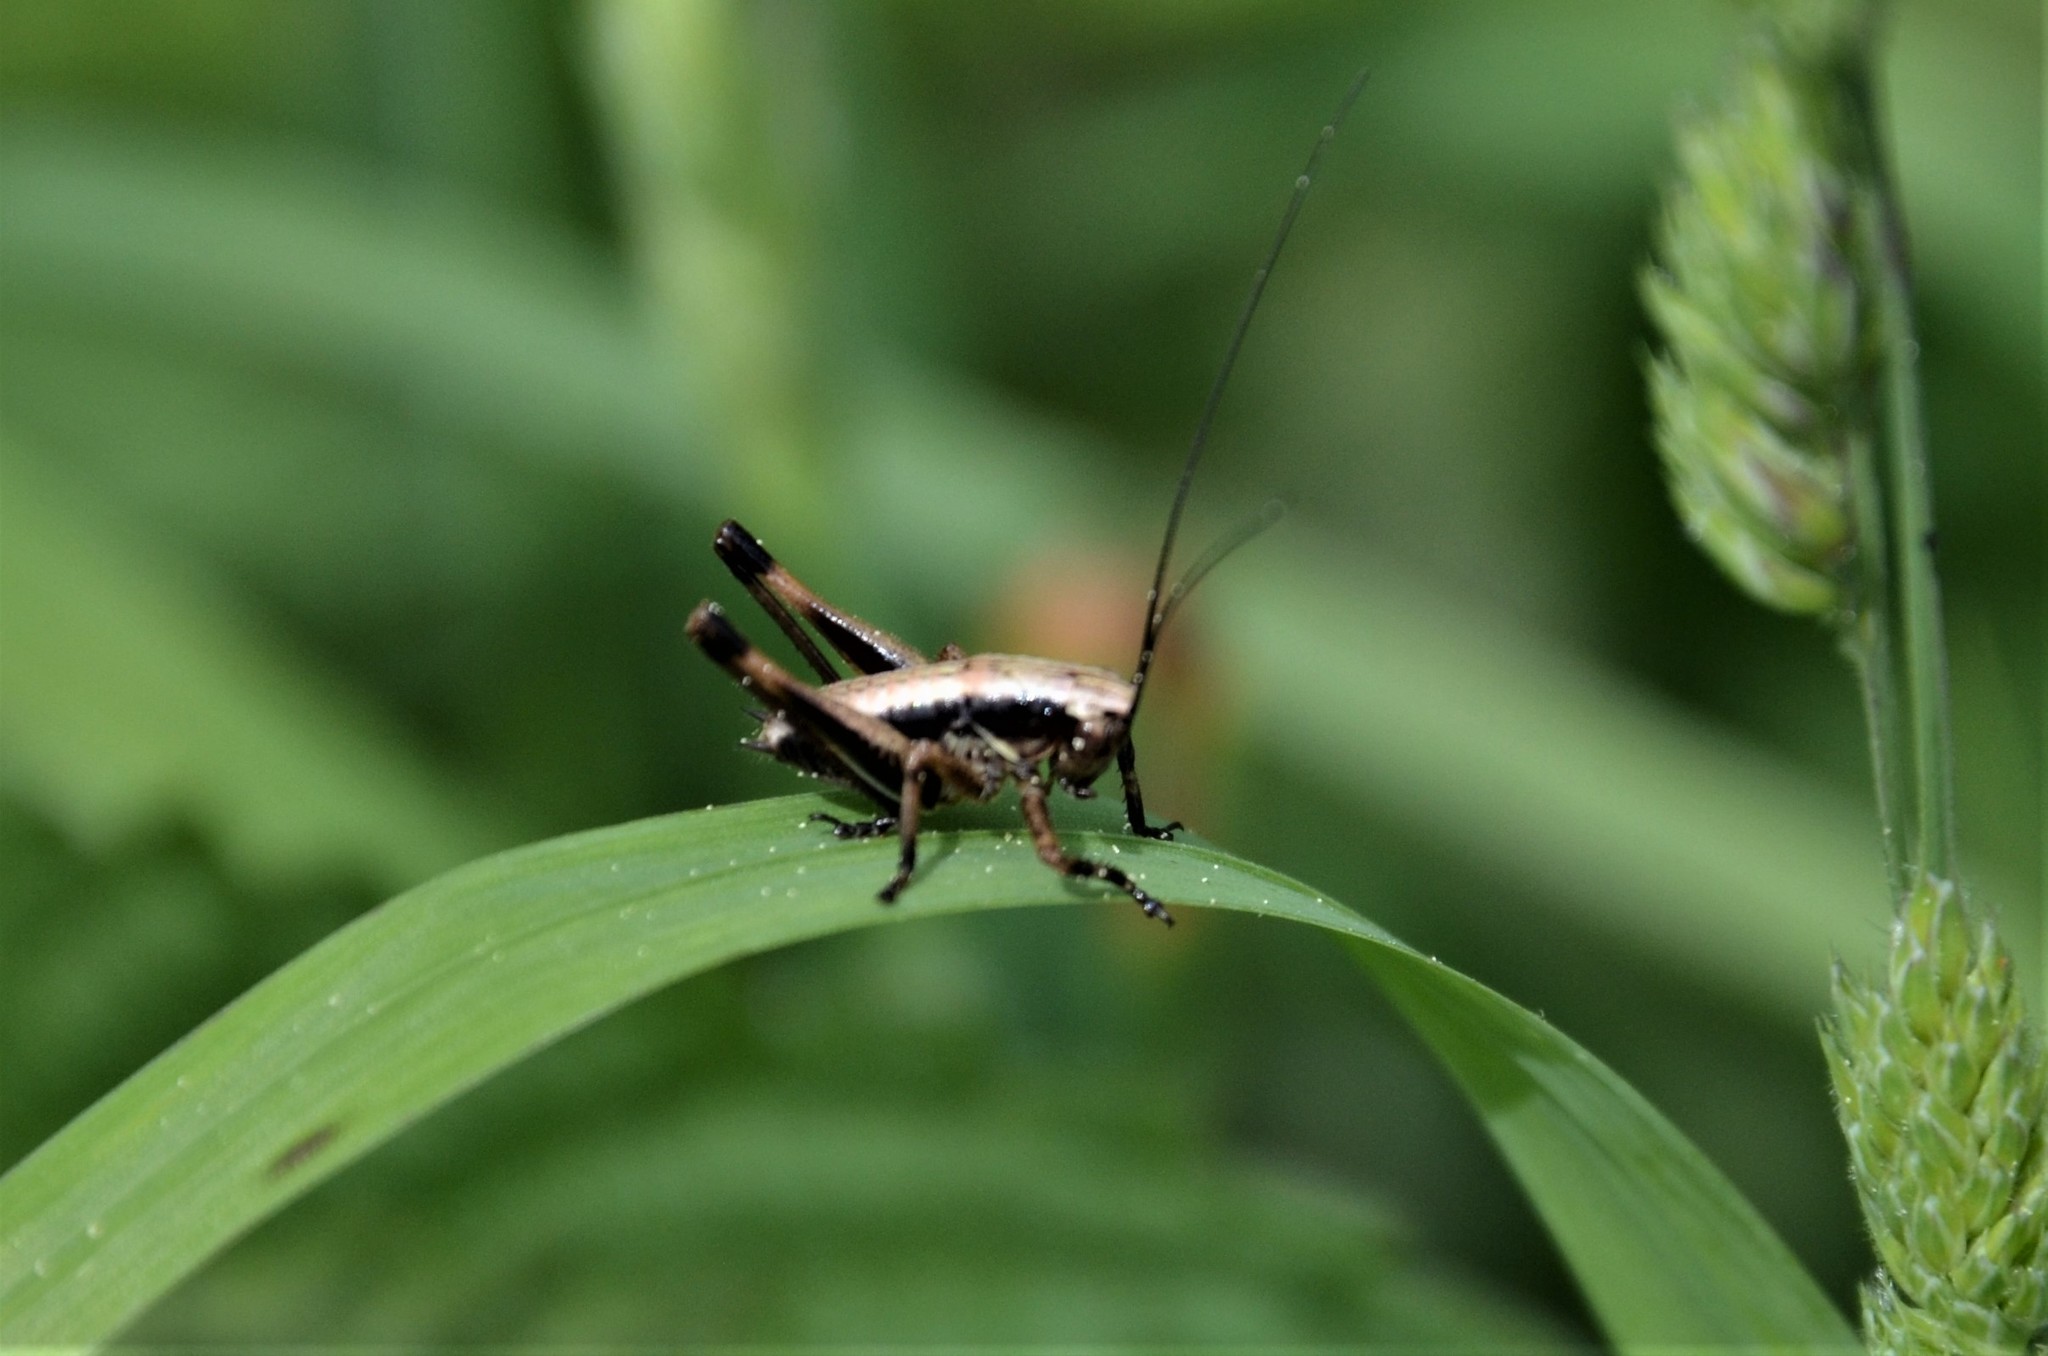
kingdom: Animalia
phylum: Arthropoda
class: Insecta
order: Orthoptera
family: Tettigoniidae
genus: Pholidoptera
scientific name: Pholidoptera griseoaptera
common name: Dark bush-cricket
